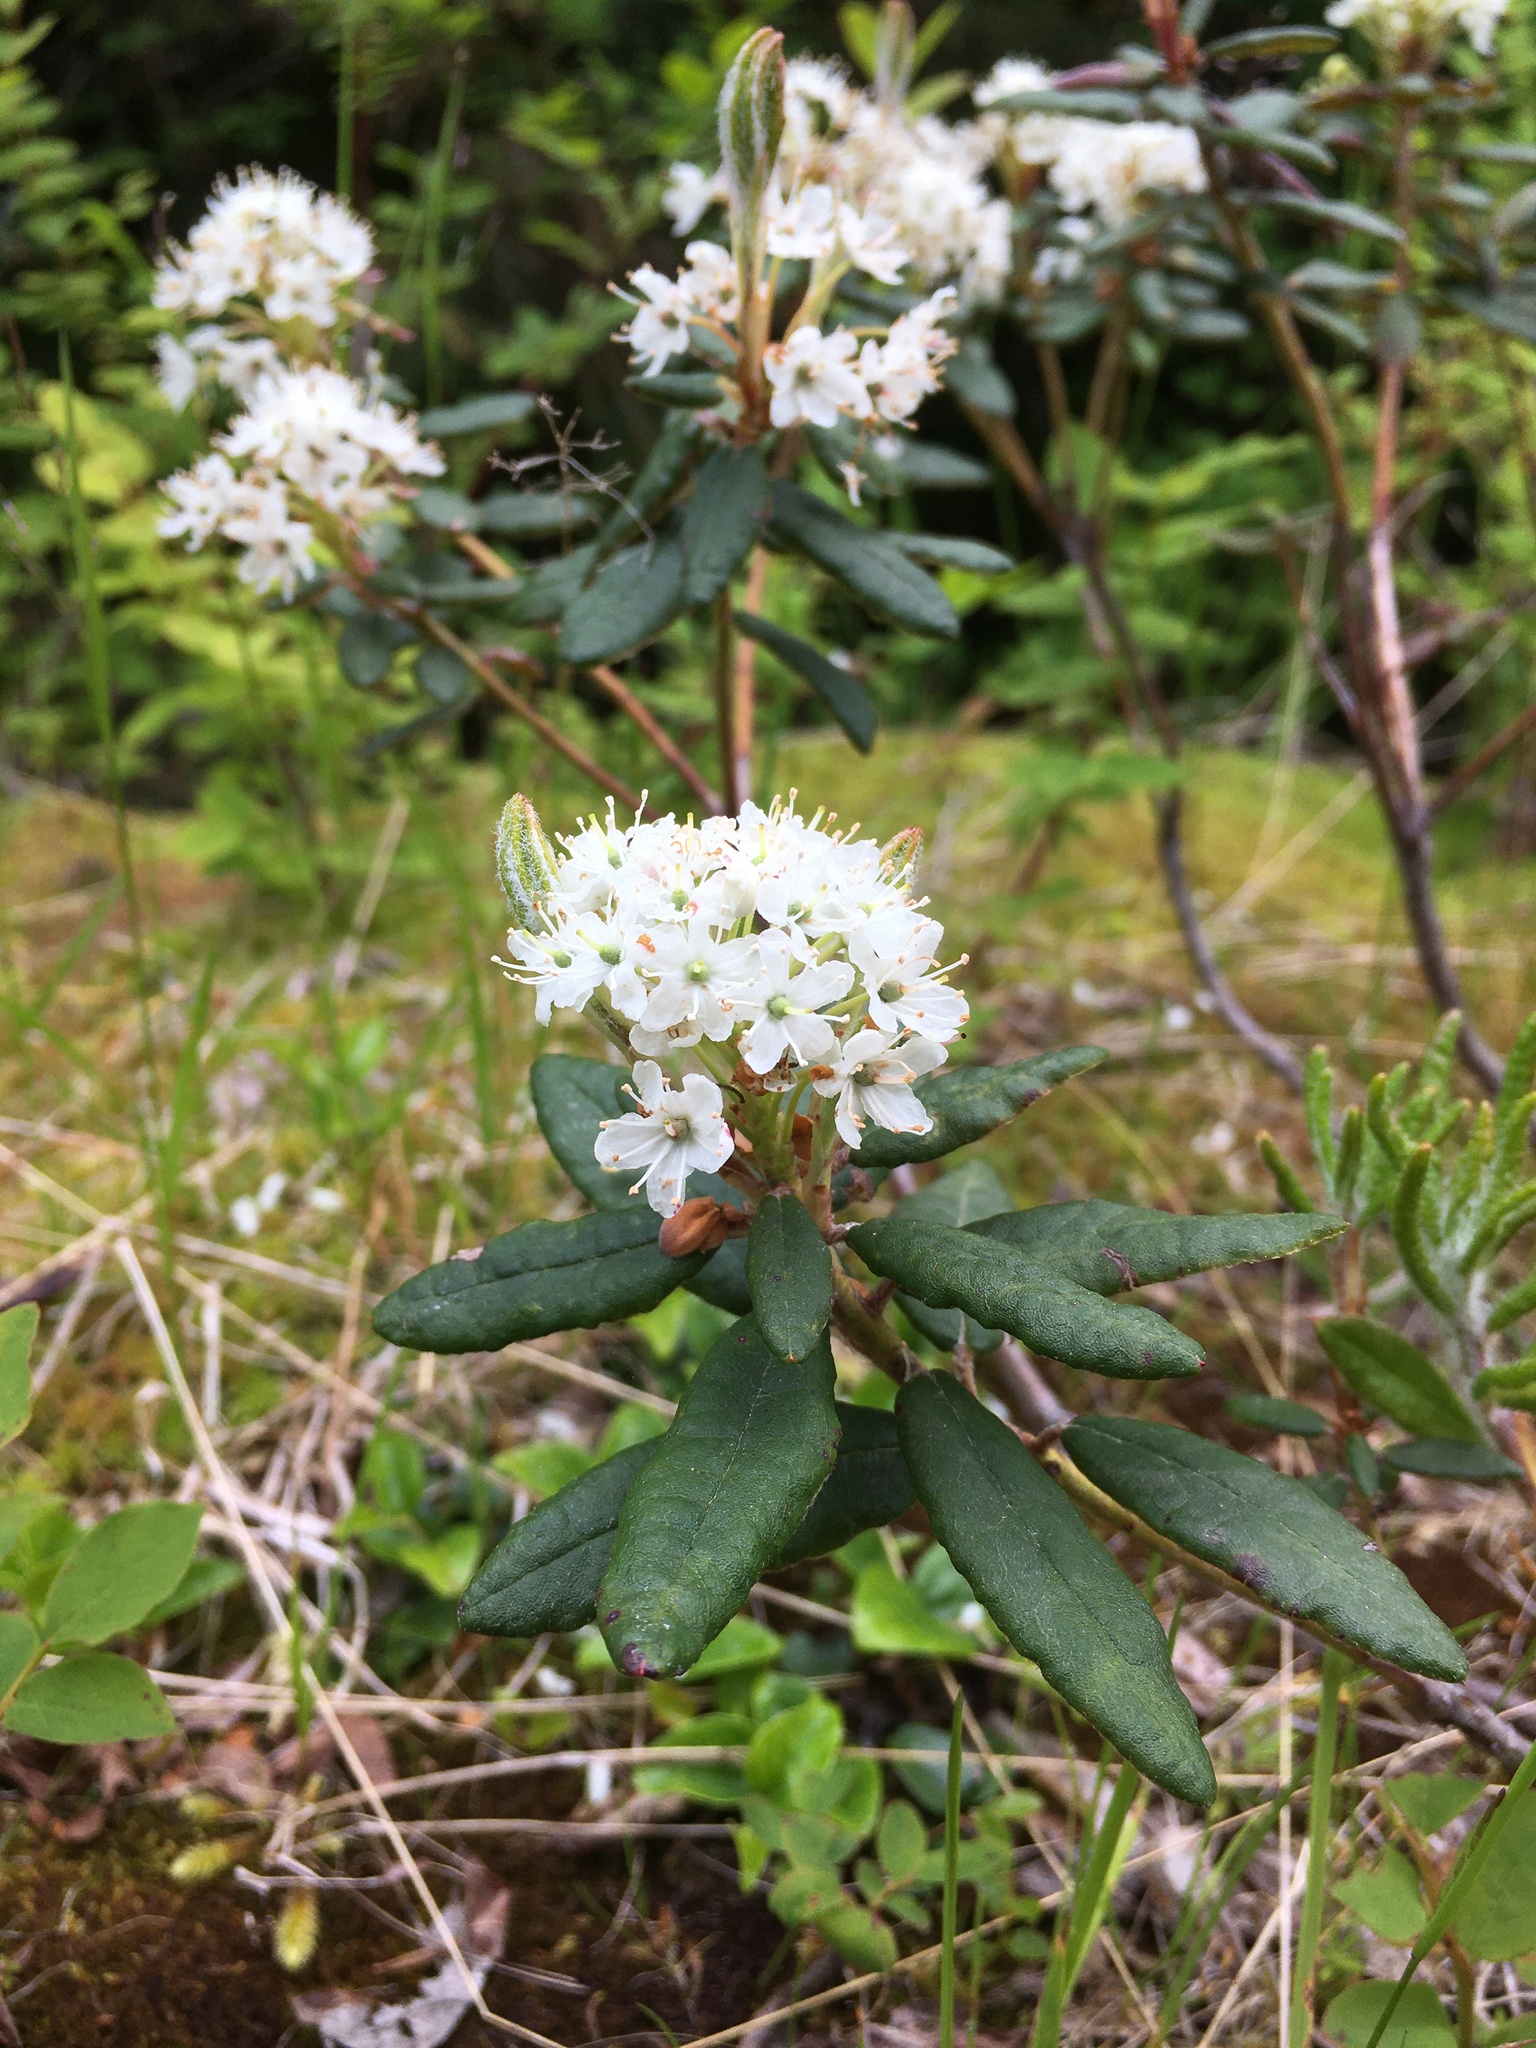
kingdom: Plantae
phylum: Tracheophyta
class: Magnoliopsida
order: Ericales
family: Ericaceae
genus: Rhododendron
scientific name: Rhododendron groenlandicum
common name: Bog labrador tea
